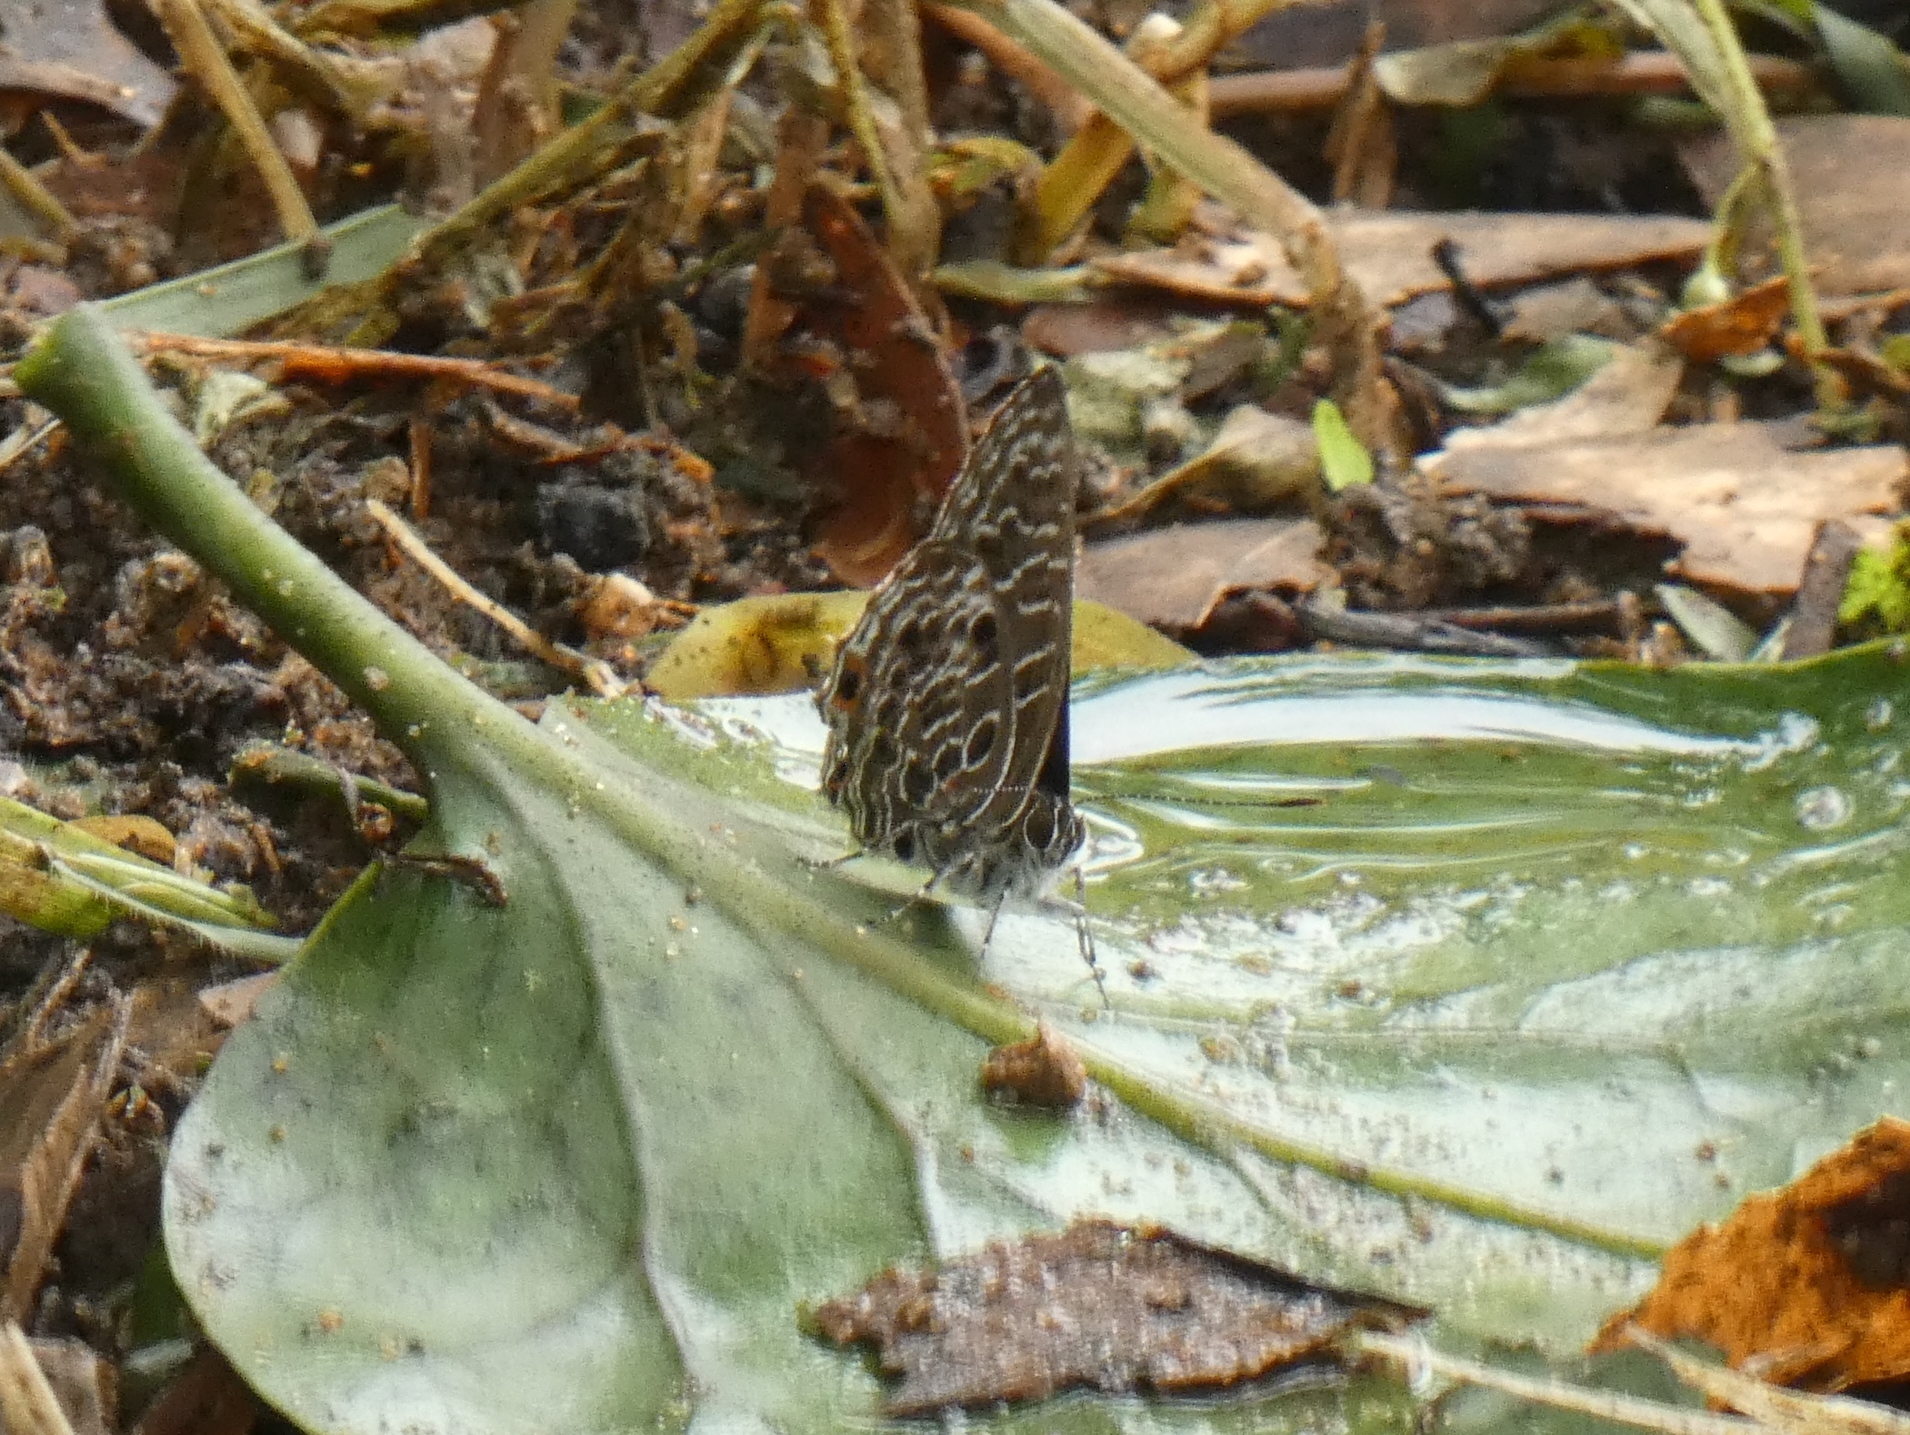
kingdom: Animalia
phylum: Arthropoda
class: Insecta
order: Lepidoptera
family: Lycaenidae
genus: Anthene
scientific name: Anthene larydas
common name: Forest hairtail
